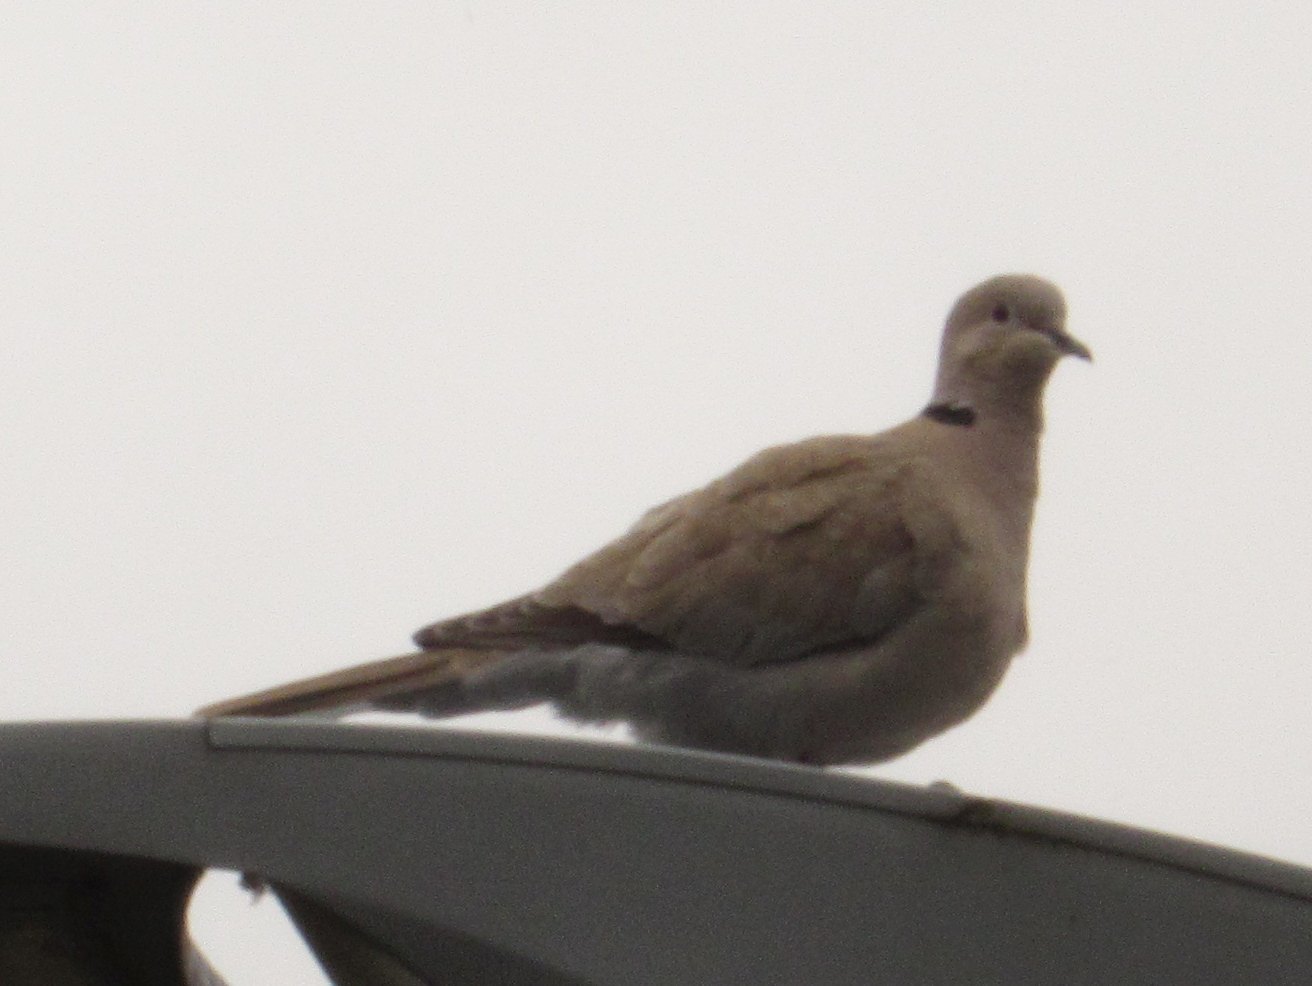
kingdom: Animalia
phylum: Chordata
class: Aves
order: Columbiformes
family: Columbidae
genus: Streptopelia
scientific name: Streptopelia decaocto
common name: Eurasian collared dove
